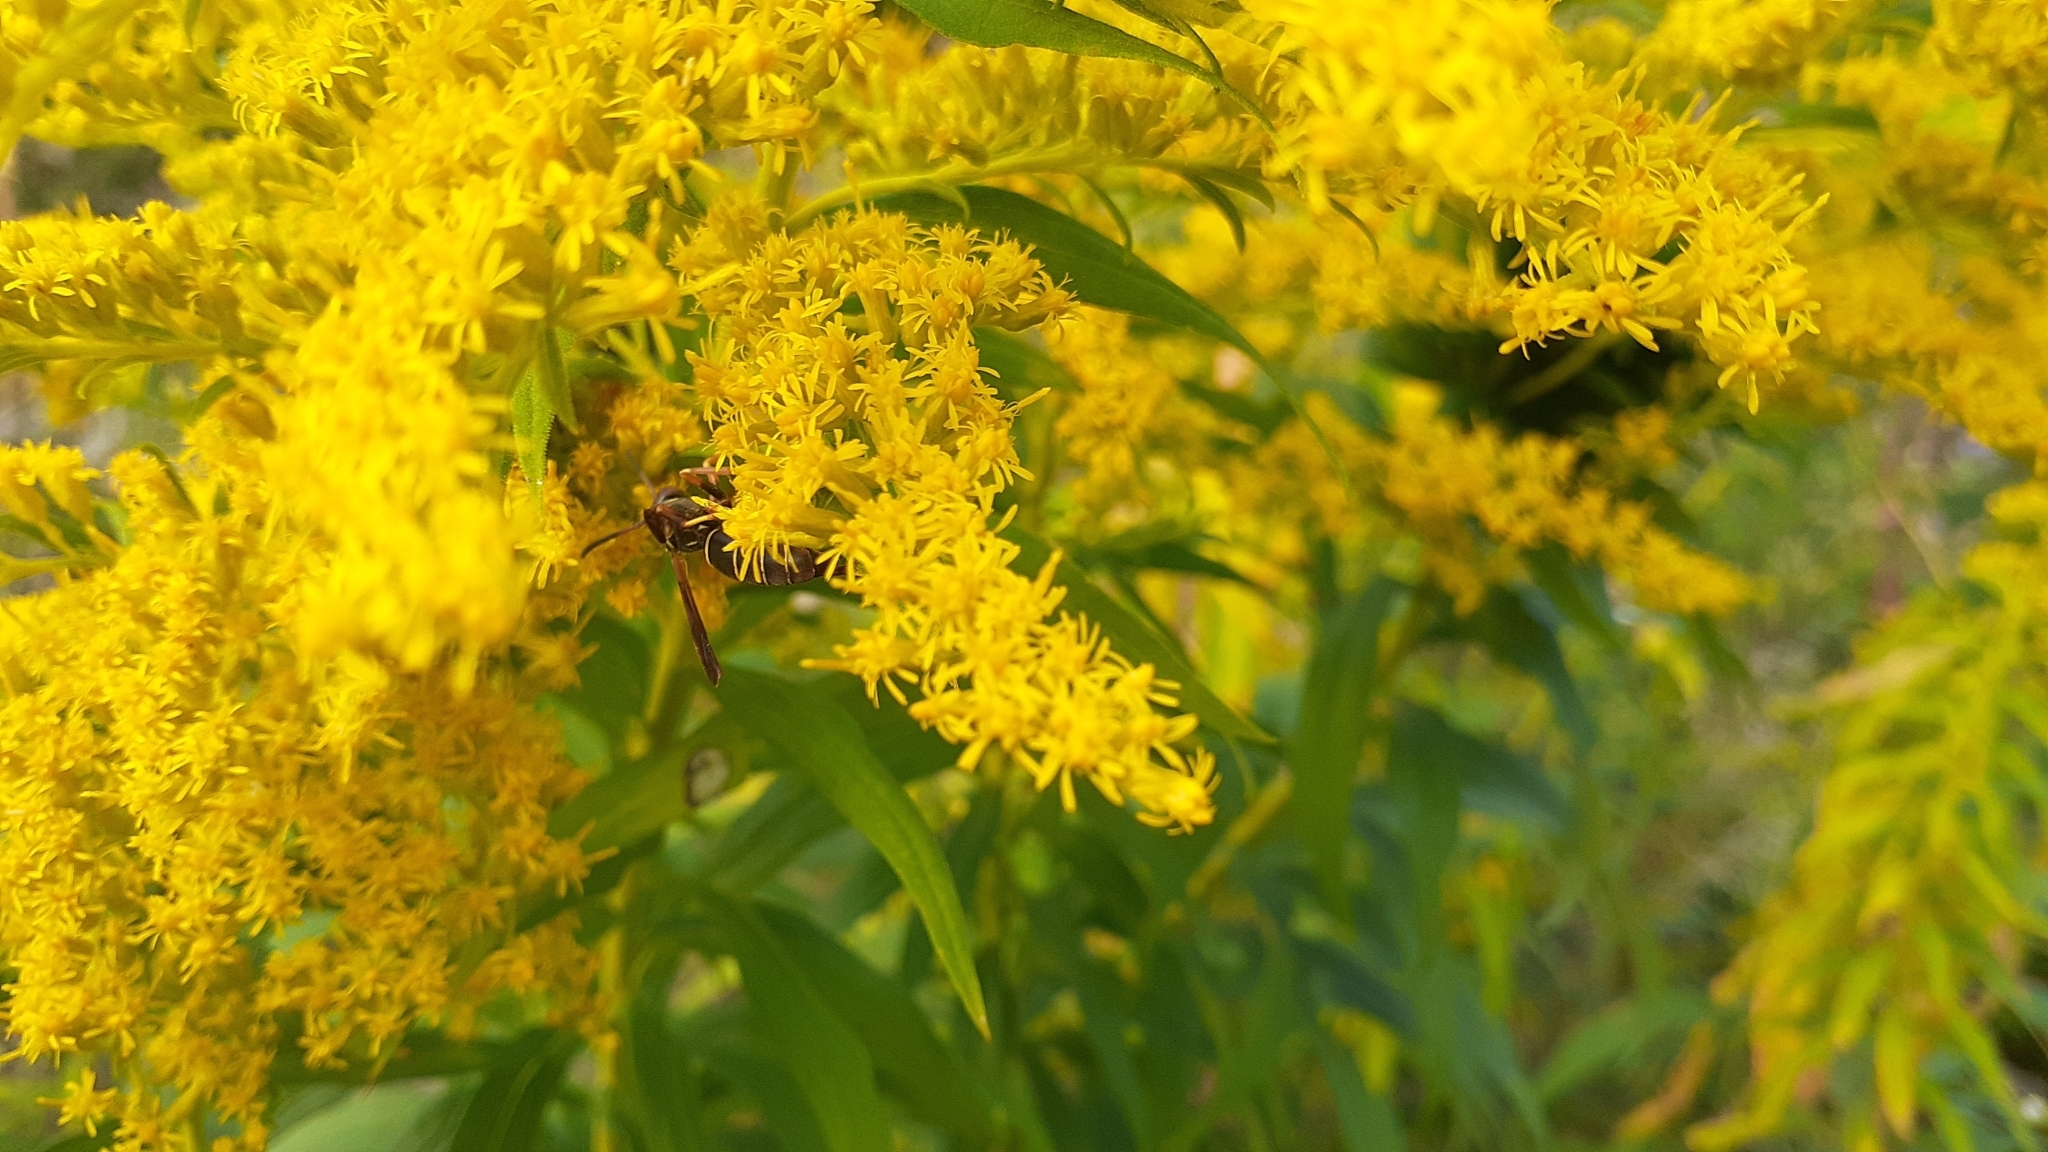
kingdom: Animalia
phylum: Arthropoda
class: Insecta
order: Hymenoptera
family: Eumenidae
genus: Polistes
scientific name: Polistes fuscatus
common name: Dark paper wasp
